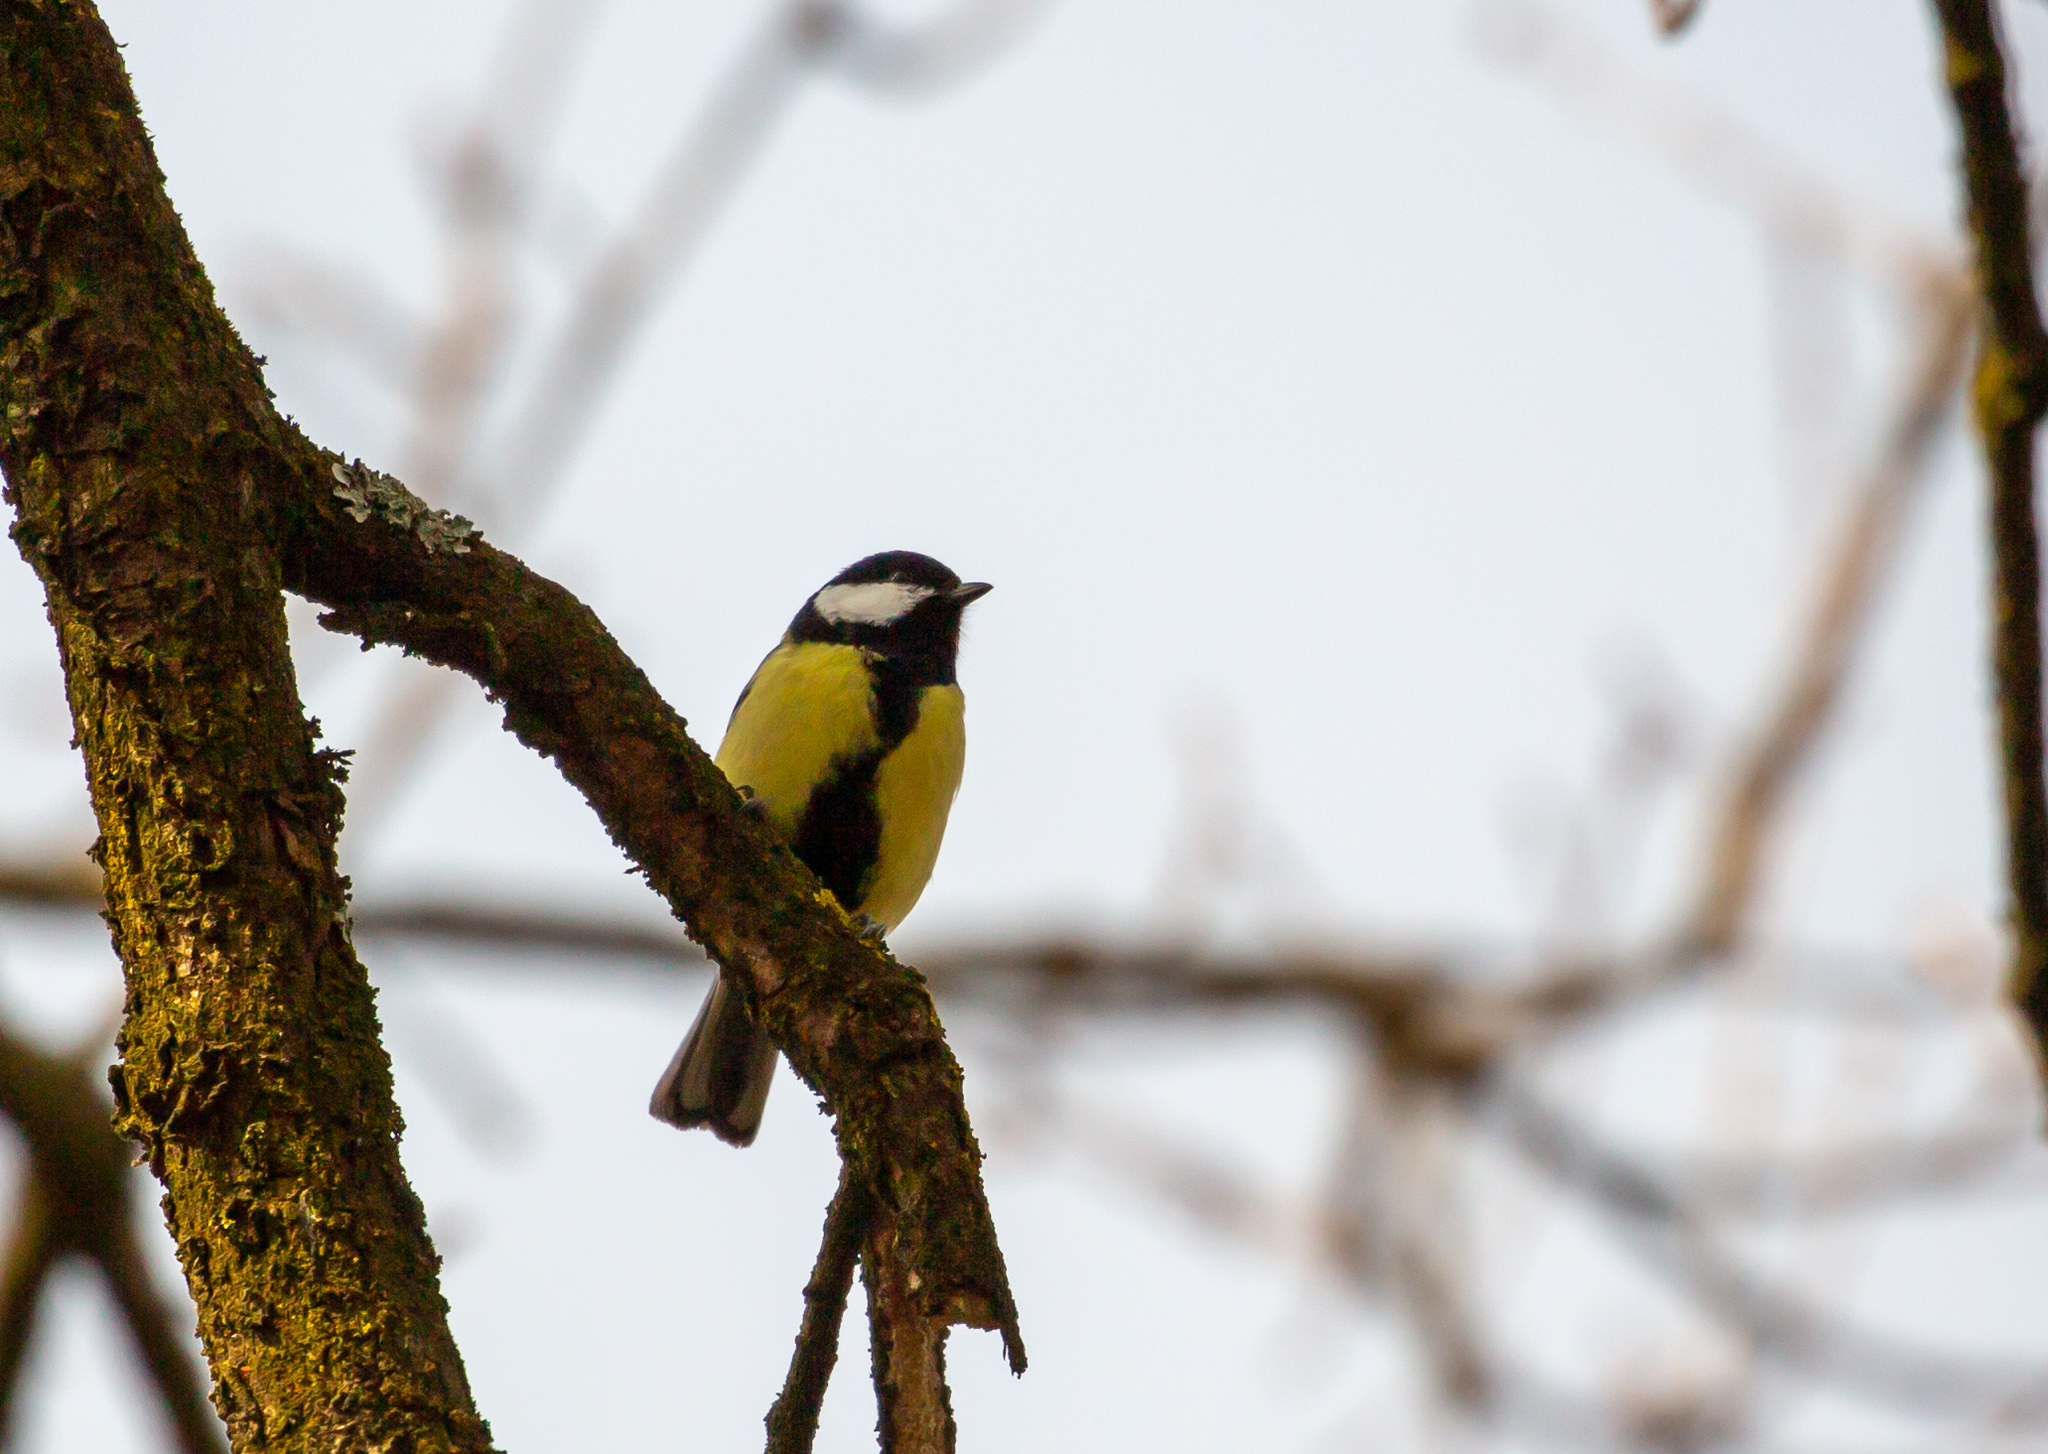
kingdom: Animalia
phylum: Chordata
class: Aves
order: Passeriformes
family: Paridae
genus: Parus
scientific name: Parus major
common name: Great tit
